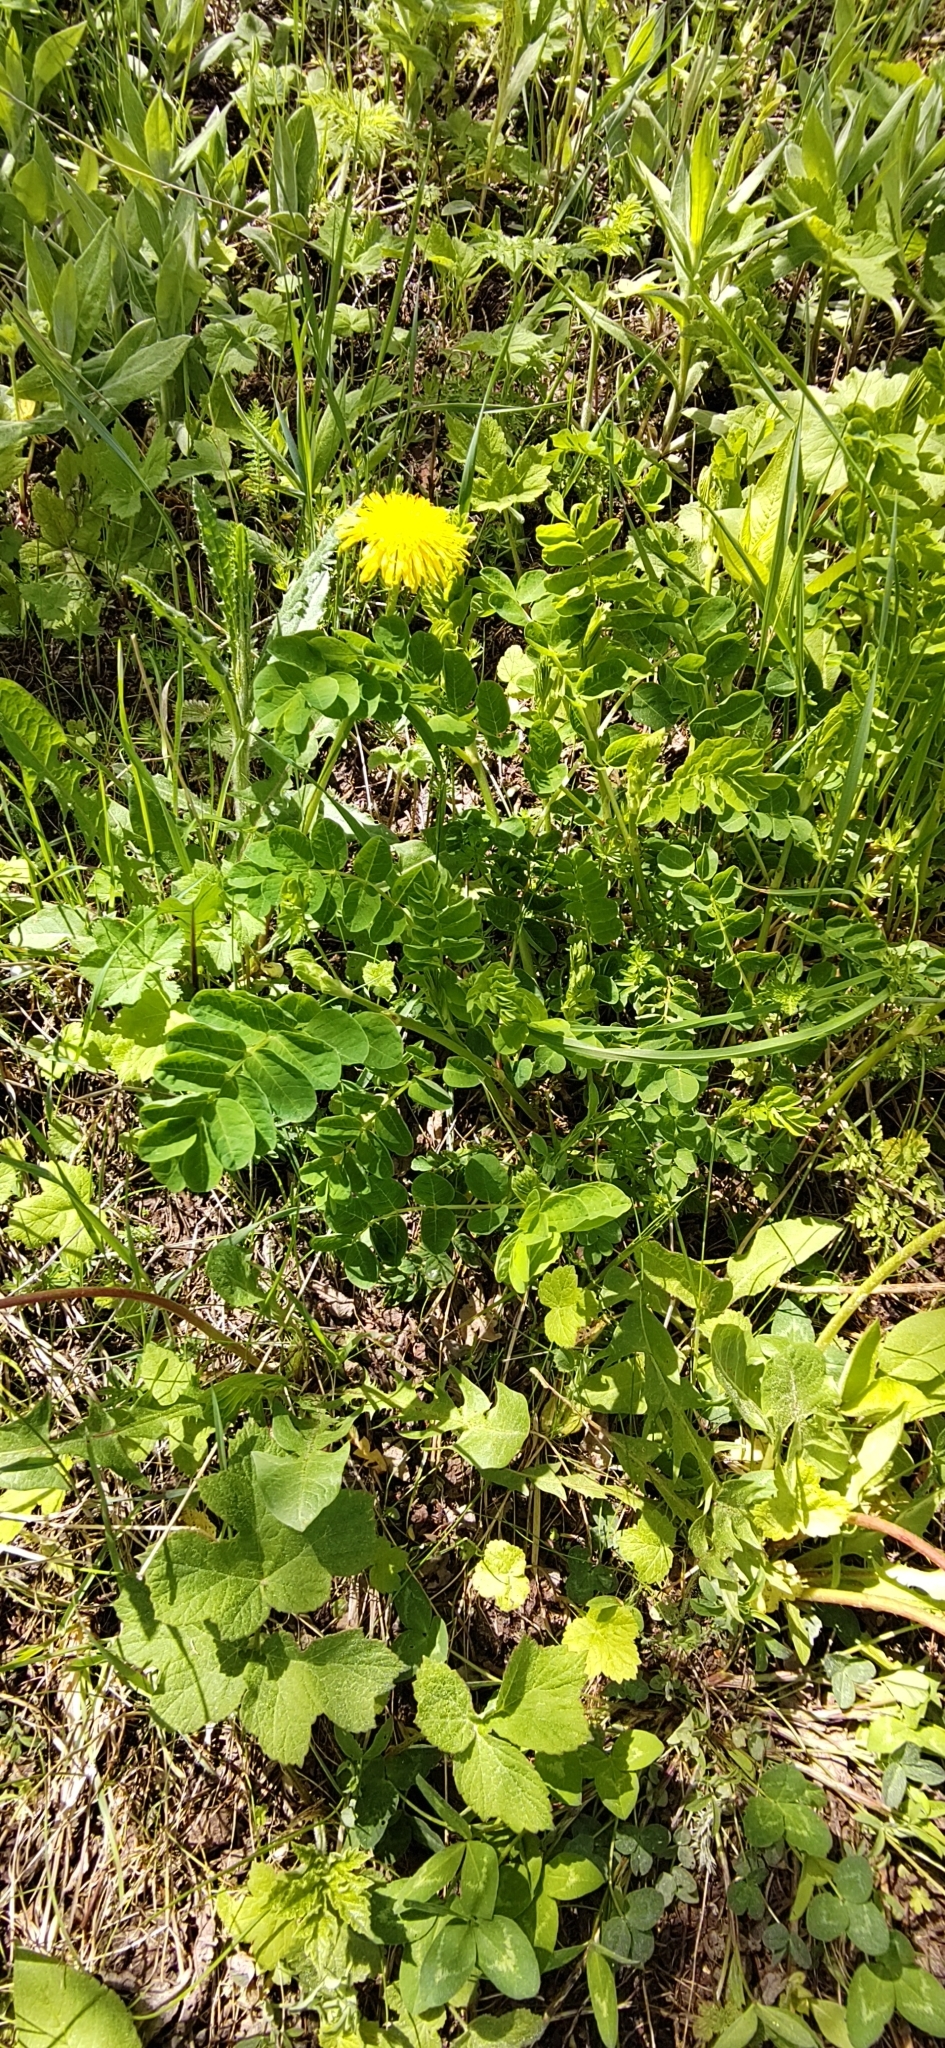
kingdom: Plantae
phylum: Tracheophyta
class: Magnoliopsida
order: Fabales
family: Fabaceae
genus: Astragalus
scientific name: Astragalus glycyphyllos
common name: Wild liquorice
